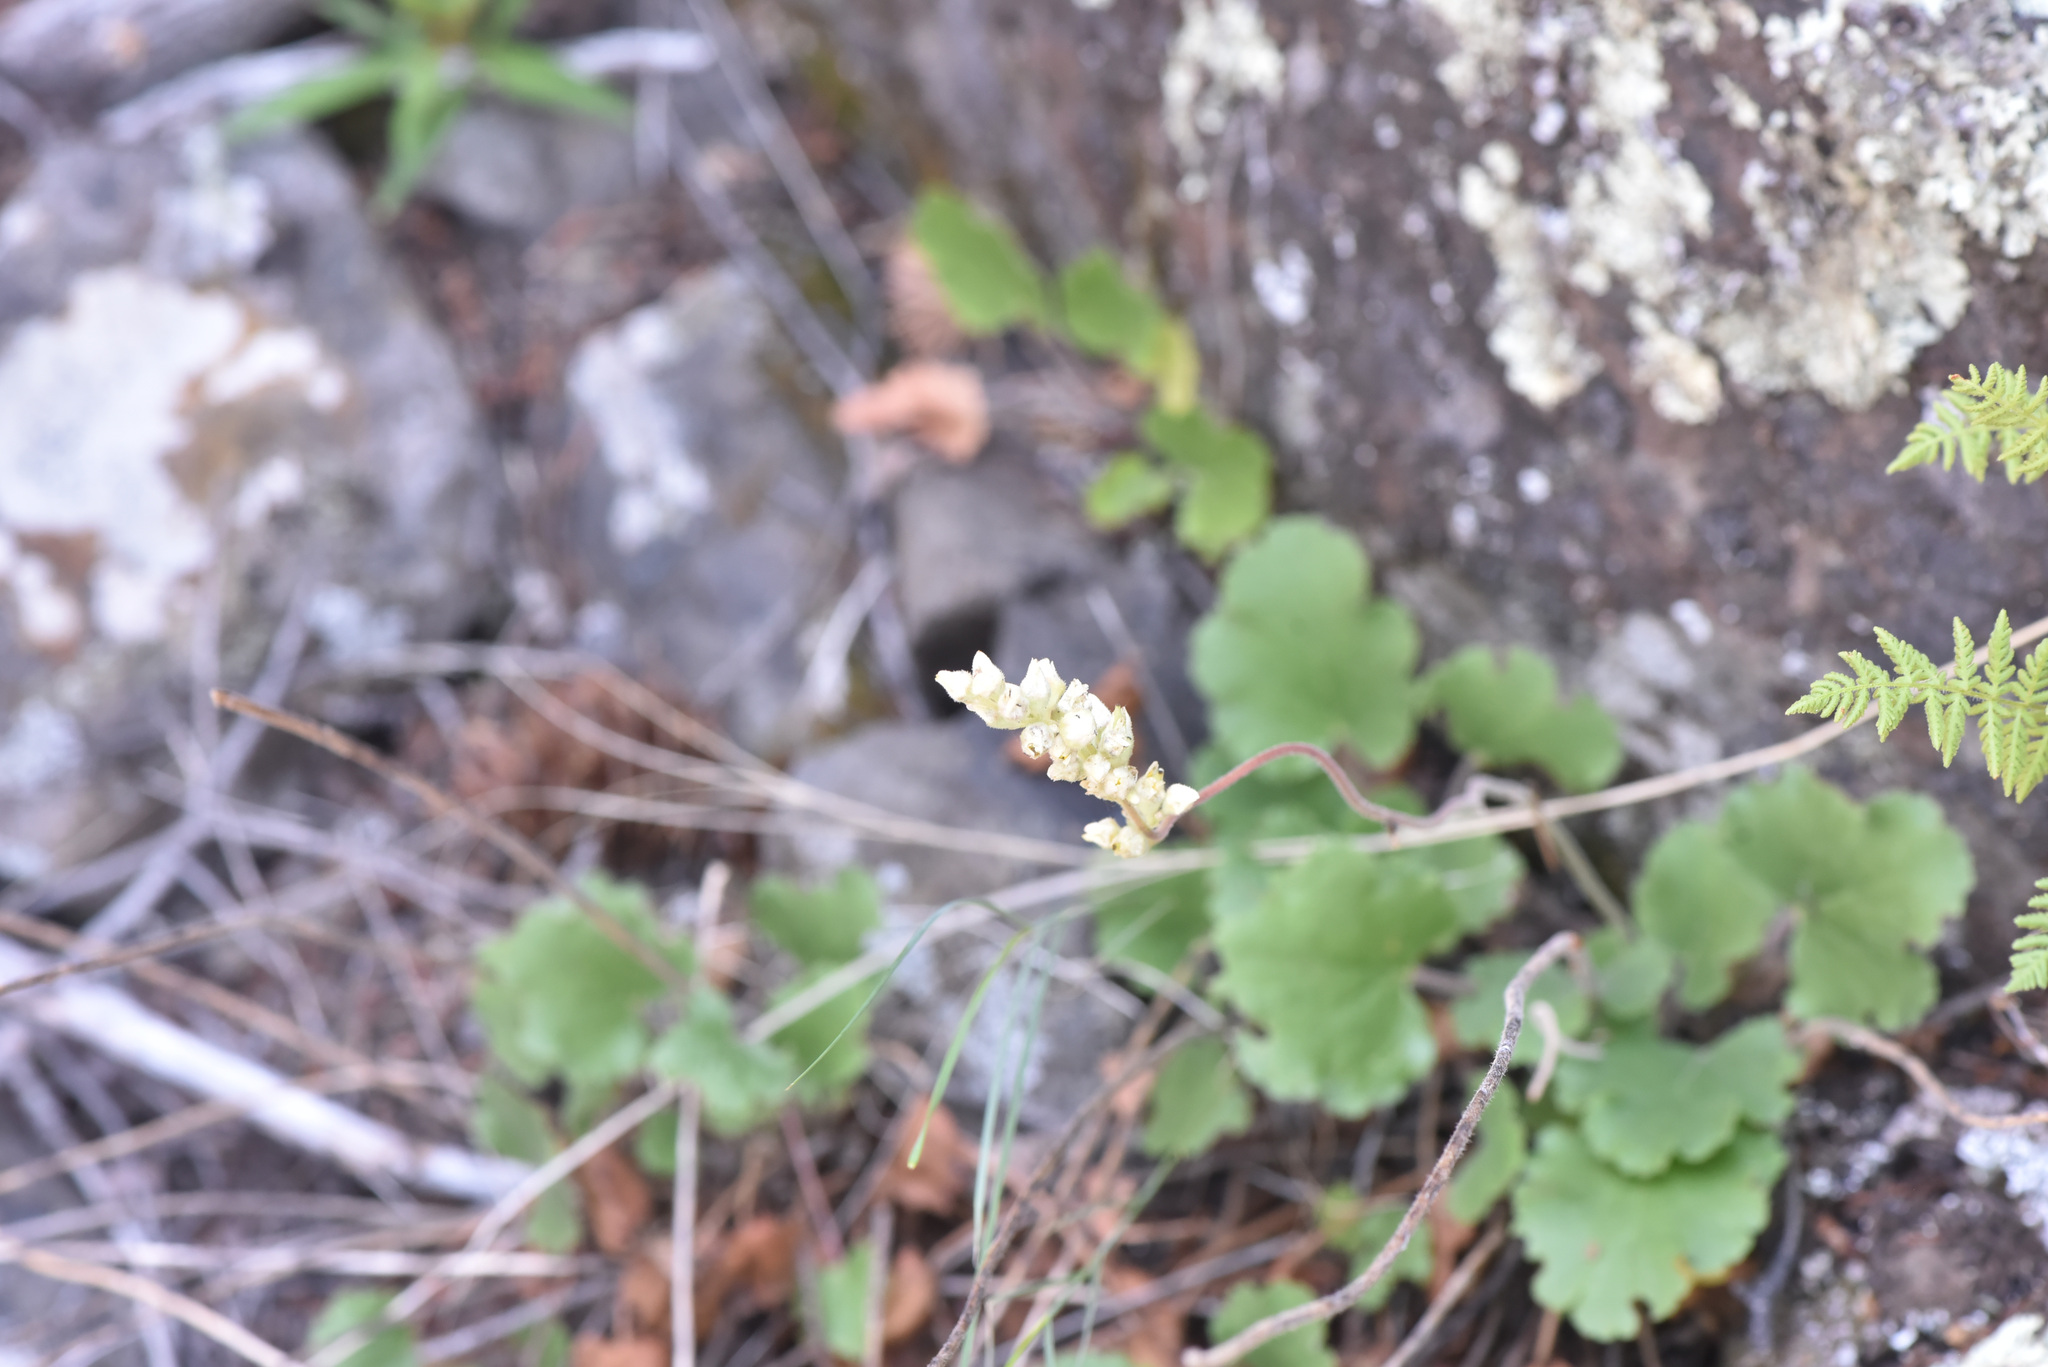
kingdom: Plantae
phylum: Tracheophyta
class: Magnoliopsida
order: Saxifragales
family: Saxifragaceae
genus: Heuchera
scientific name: Heuchera cylindrica
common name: Mat alumroot
